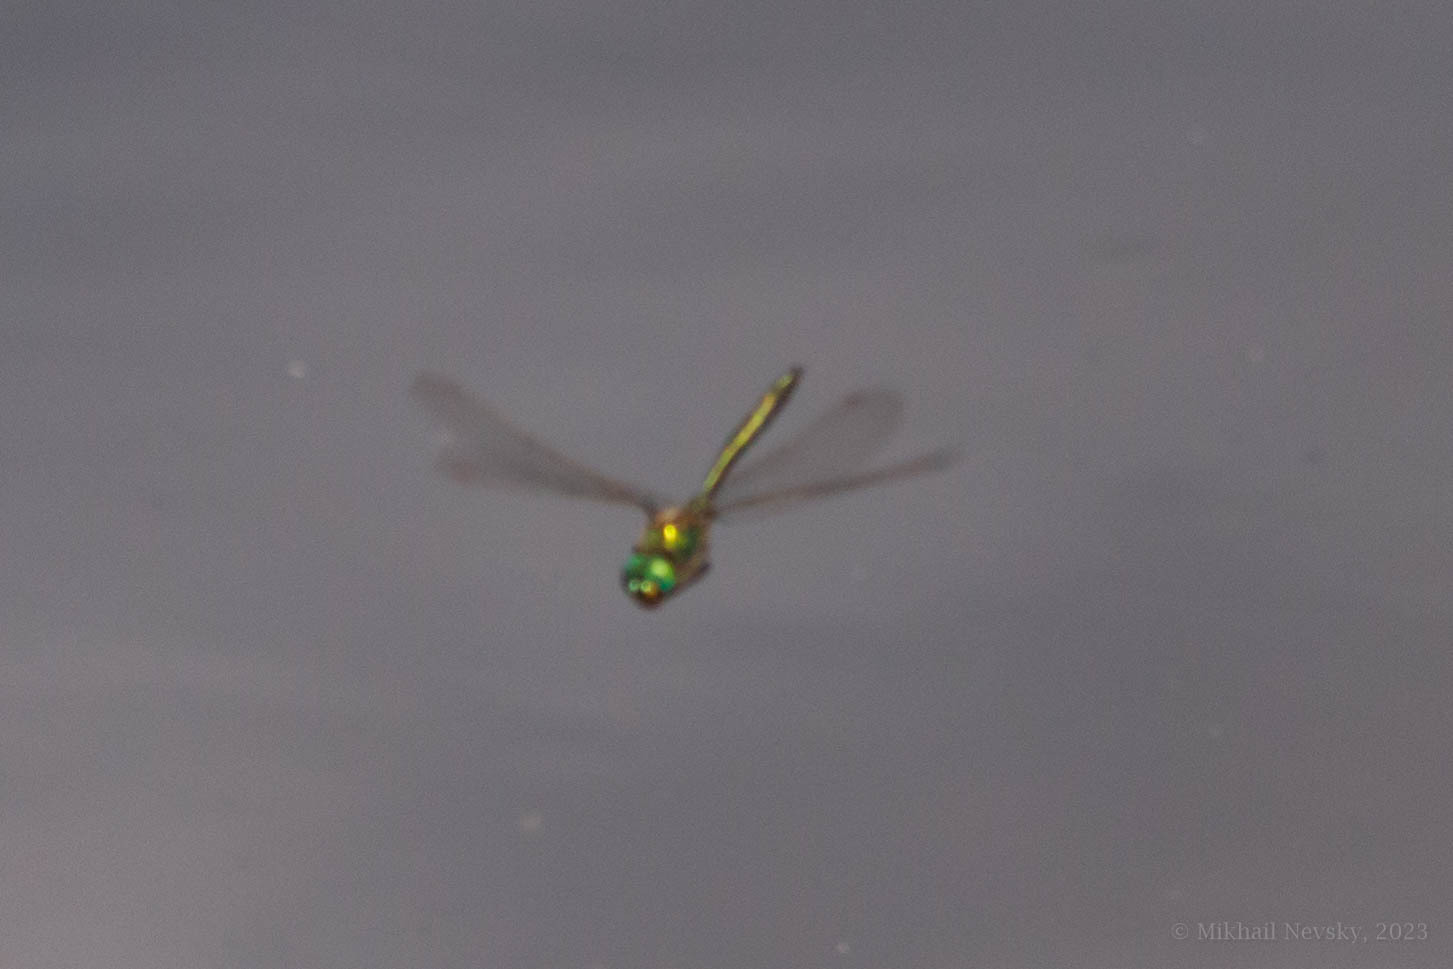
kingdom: Animalia
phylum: Arthropoda
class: Insecta
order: Odonata
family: Corduliidae
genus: Somatochlora
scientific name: Somatochlora metallica
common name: Brilliant emerald
